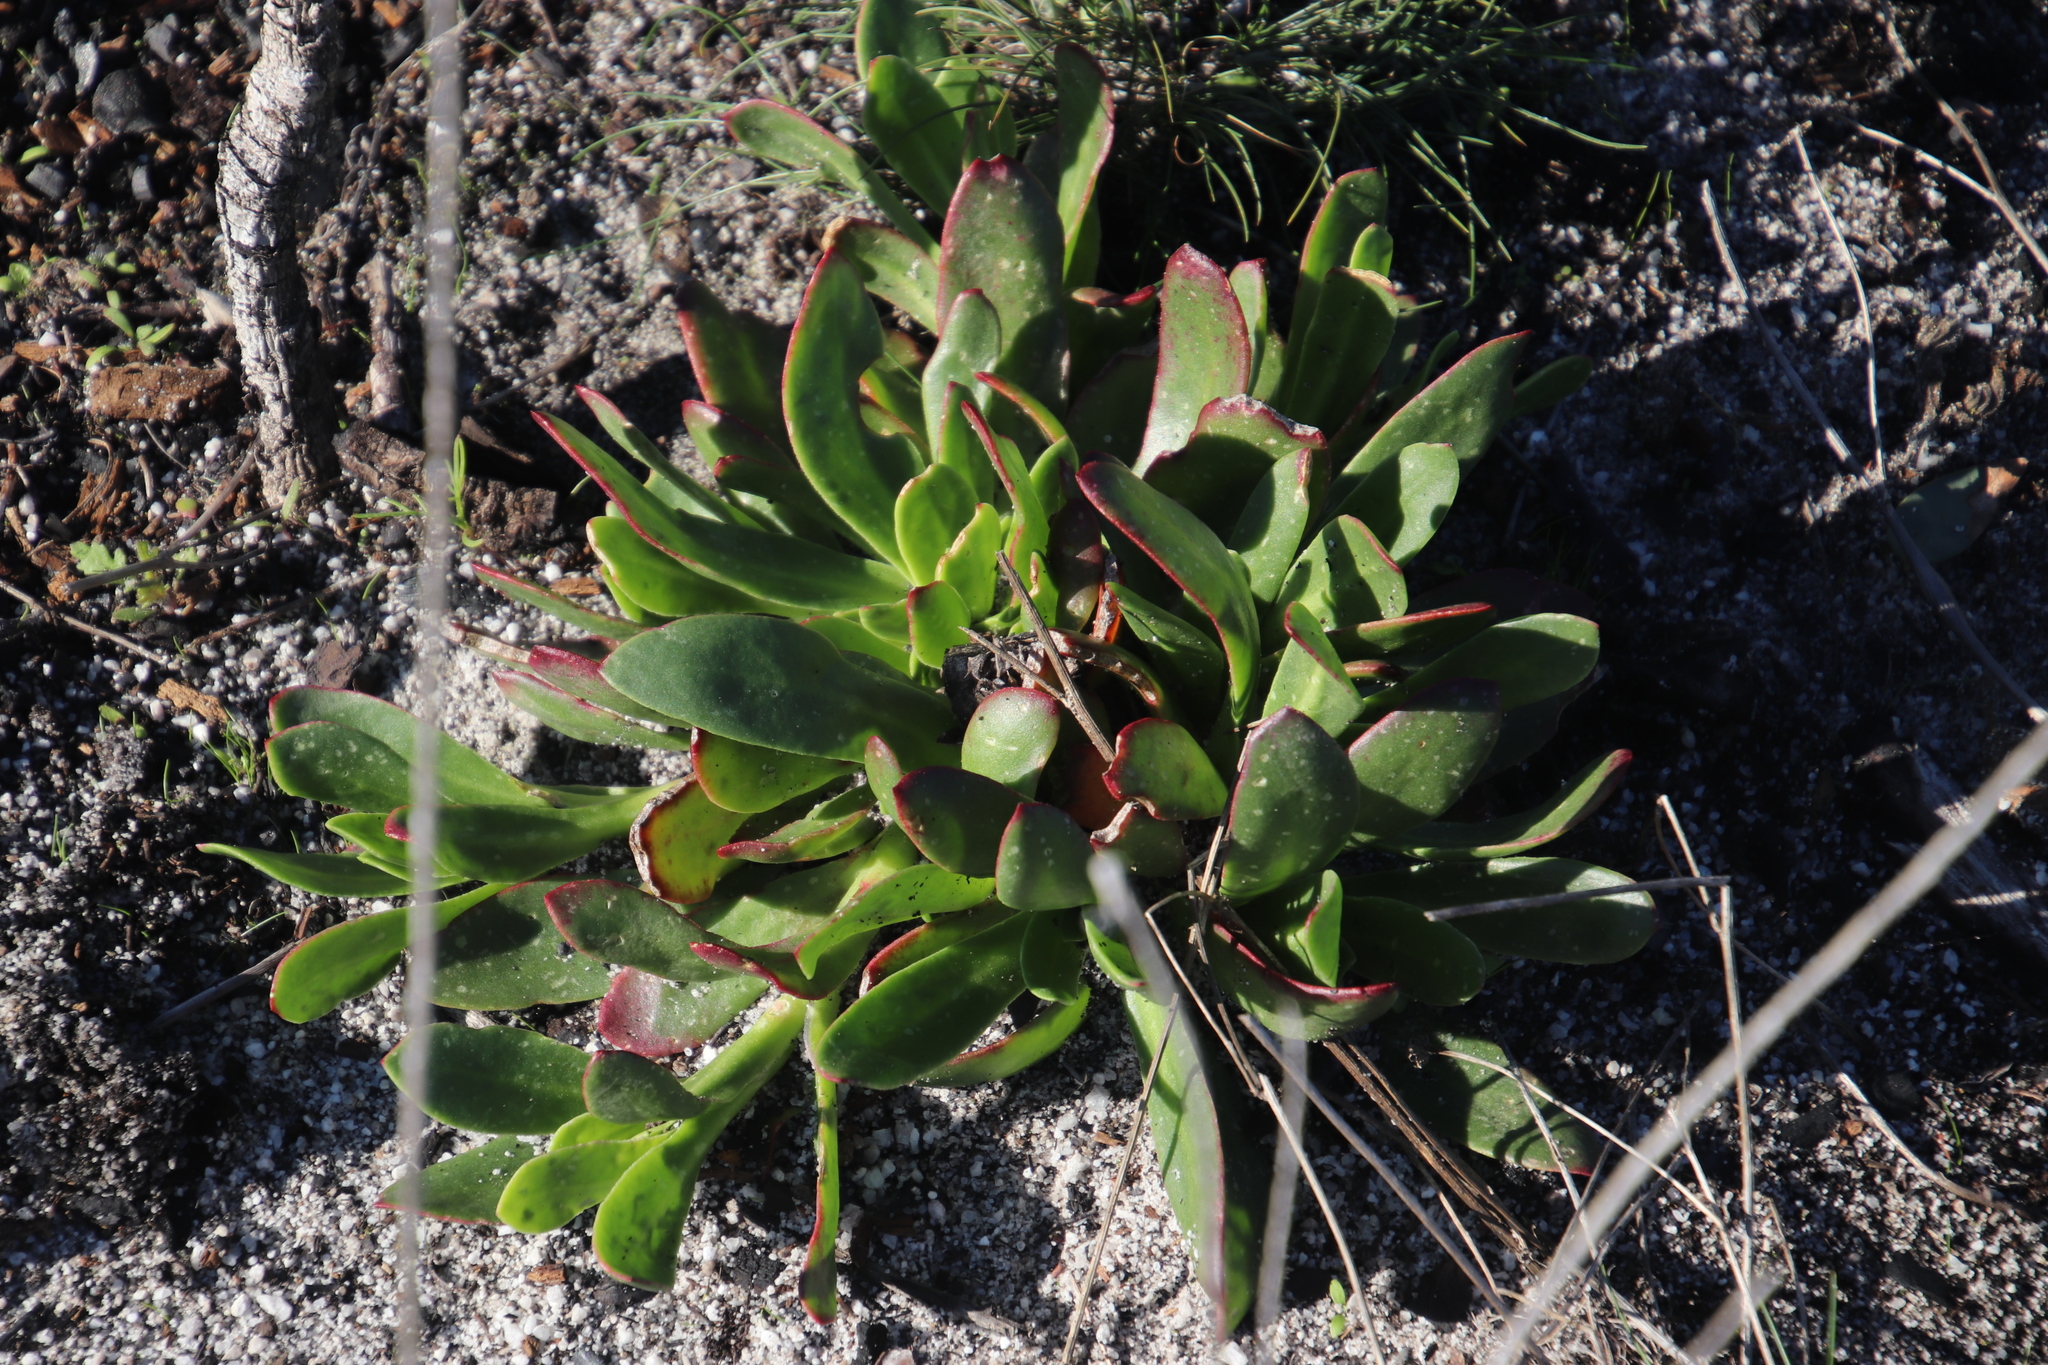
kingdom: Plantae
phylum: Tracheophyta
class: Magnoliopsida
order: Caryophyllales
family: Aizoaceae
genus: Skiatophytum
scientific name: Skiatophytum tripolium
